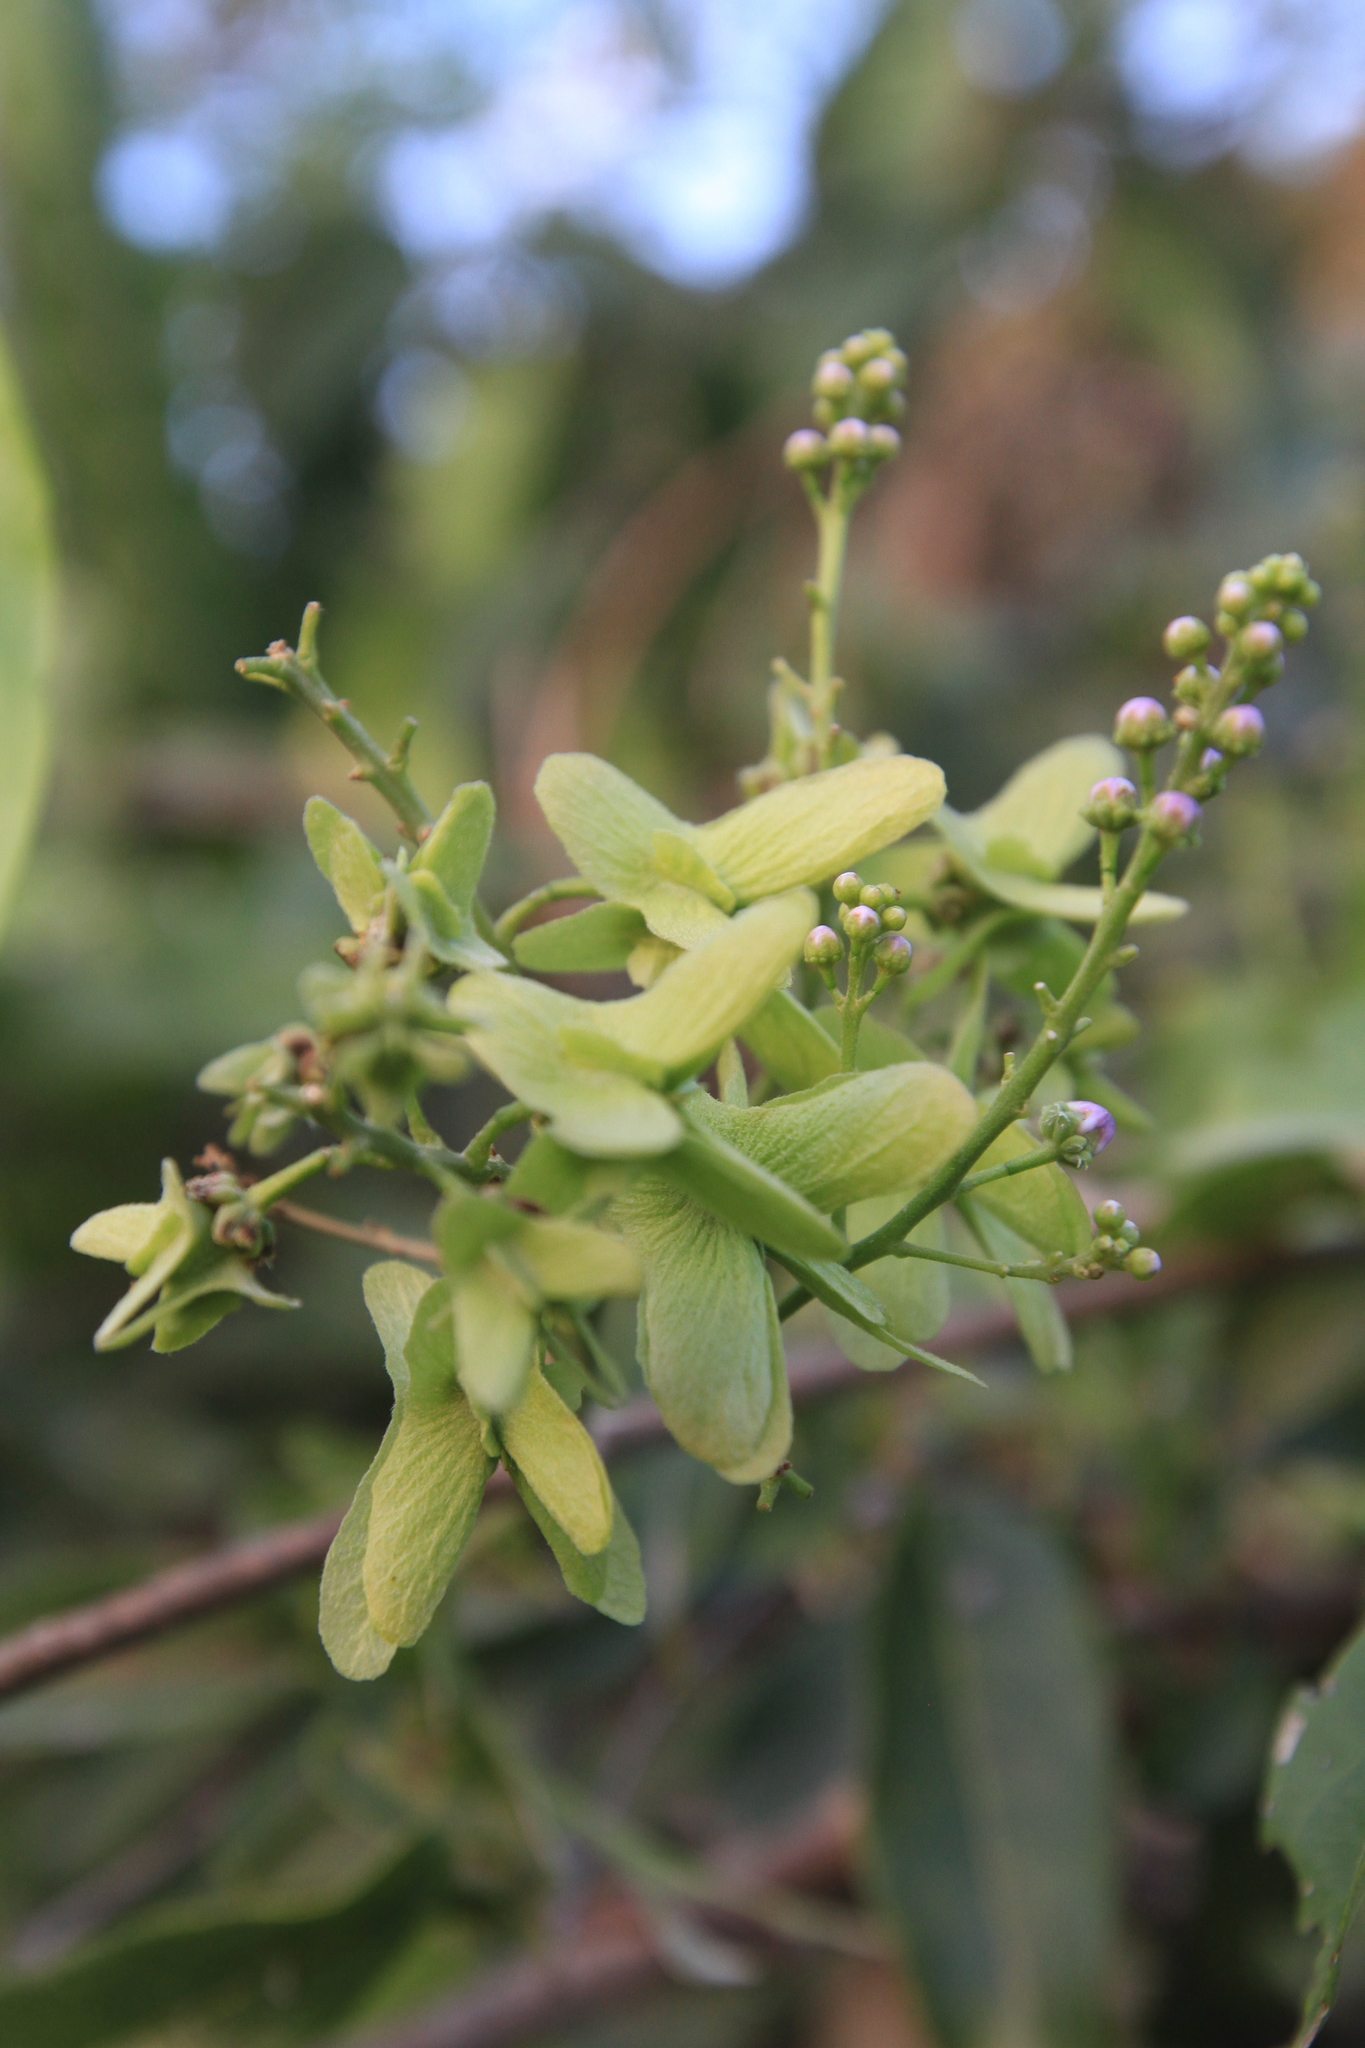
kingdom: Plantae
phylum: Tracheophyta
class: Magnoliopsida
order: Malpighiales
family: Malpighiaceae
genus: Mascagnia
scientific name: Mascagnia adamsii
